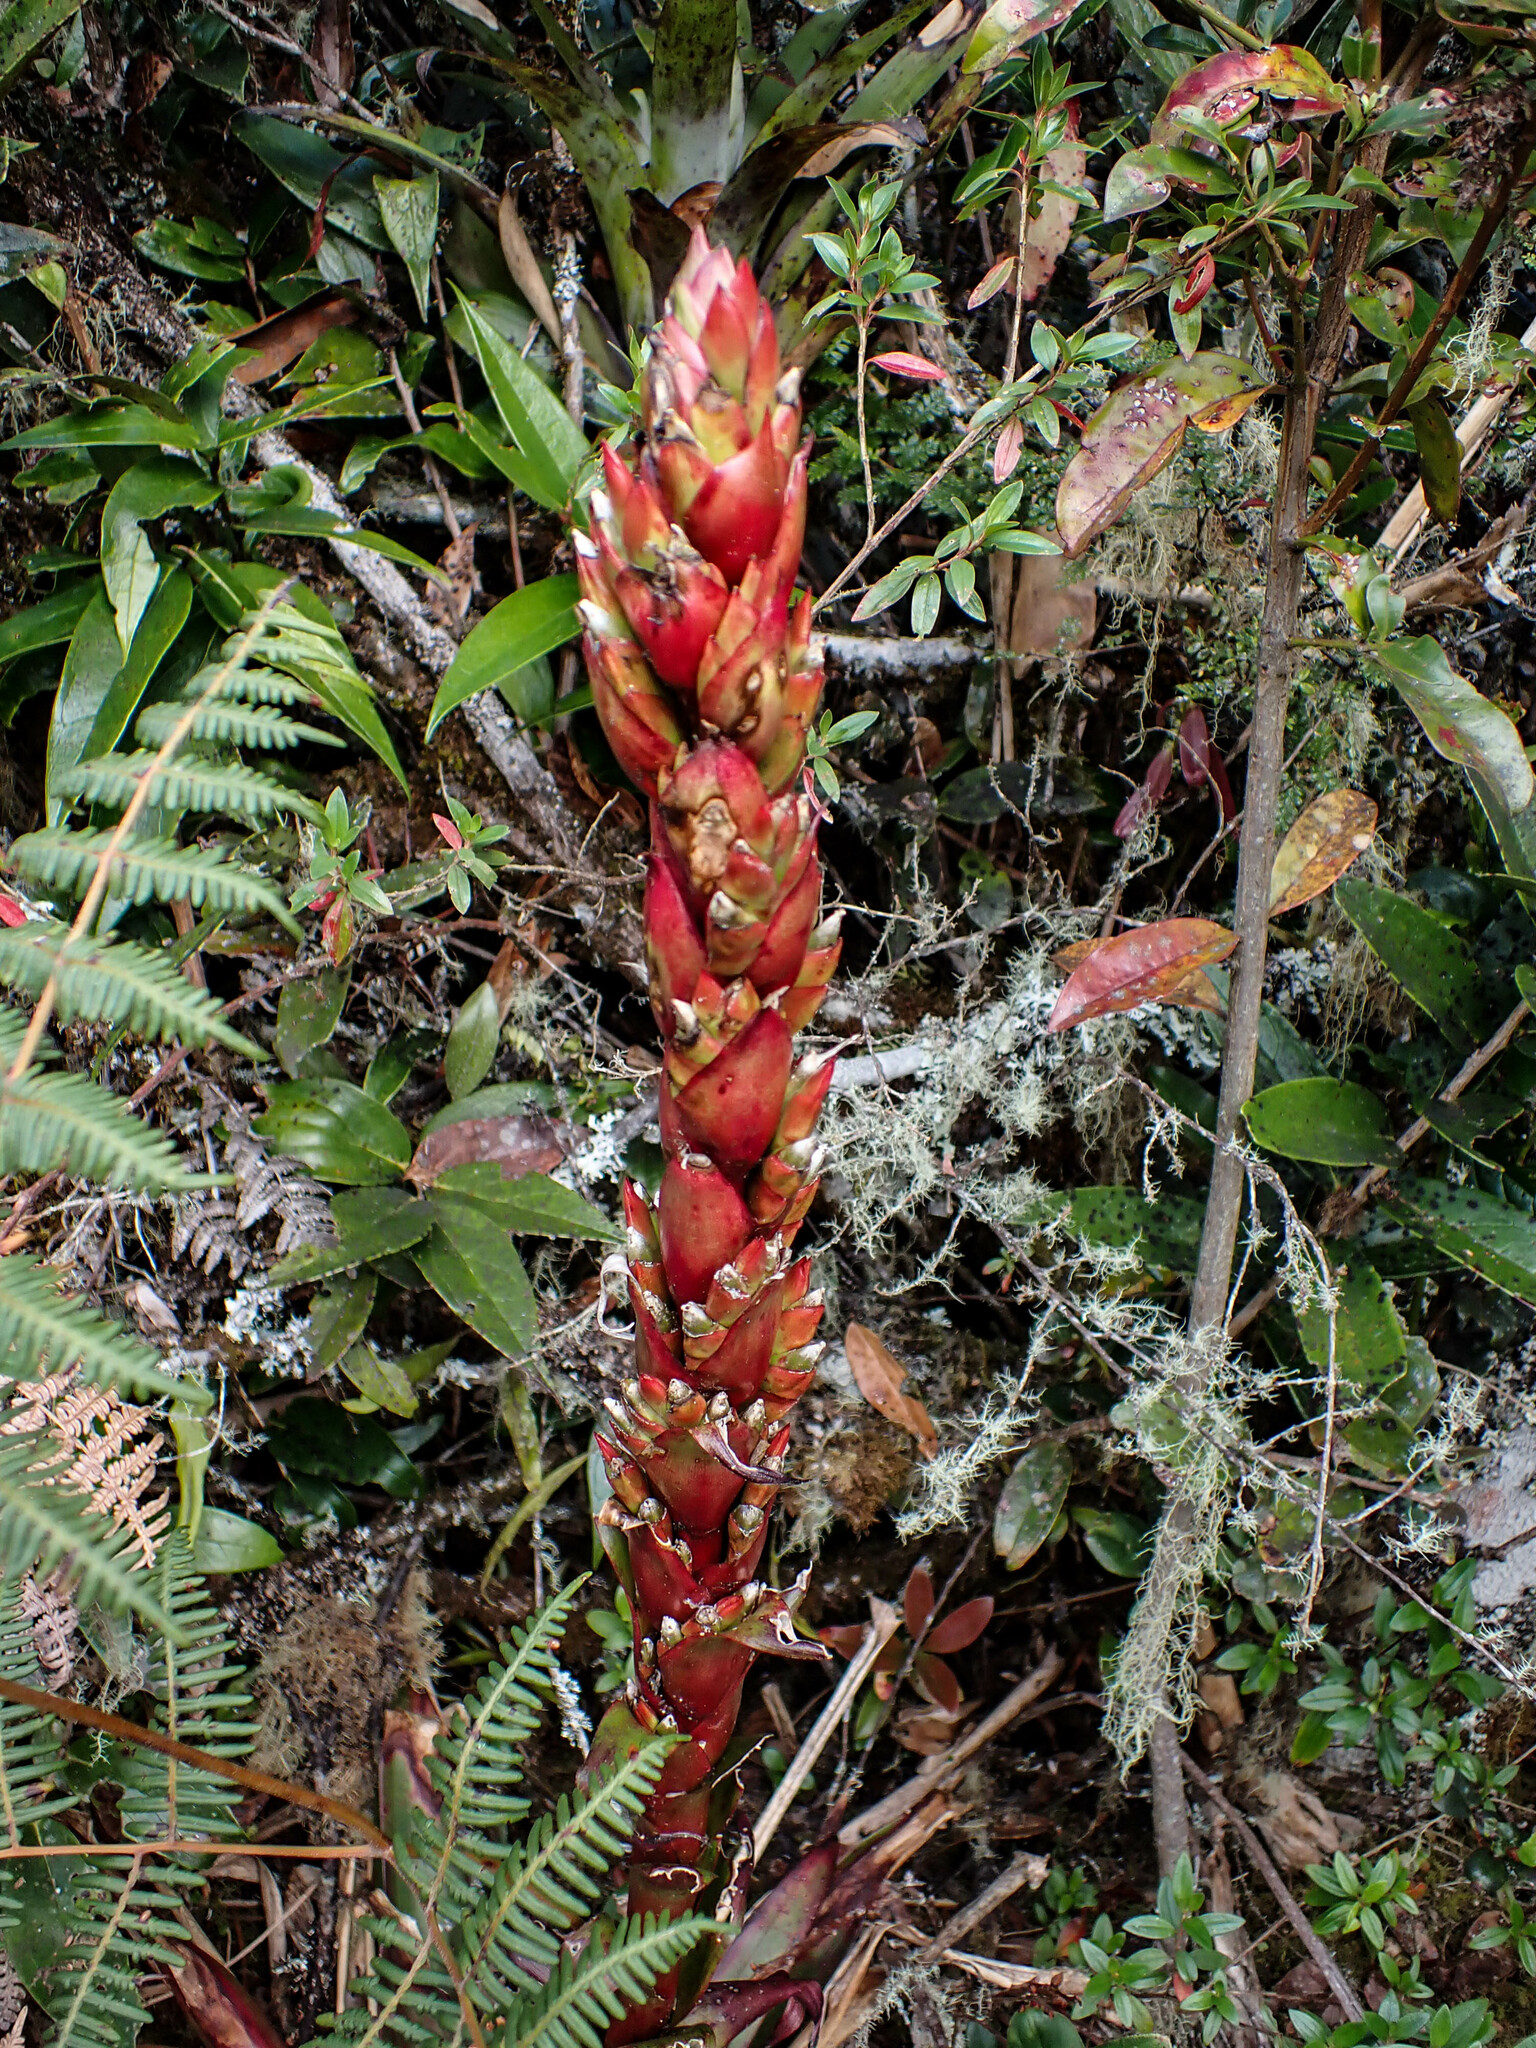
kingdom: Plantae
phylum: Tracheophyta
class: Liliopsida
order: Poales
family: Bromeliaceae
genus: Tillandsia
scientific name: Tillandsia pastensis
